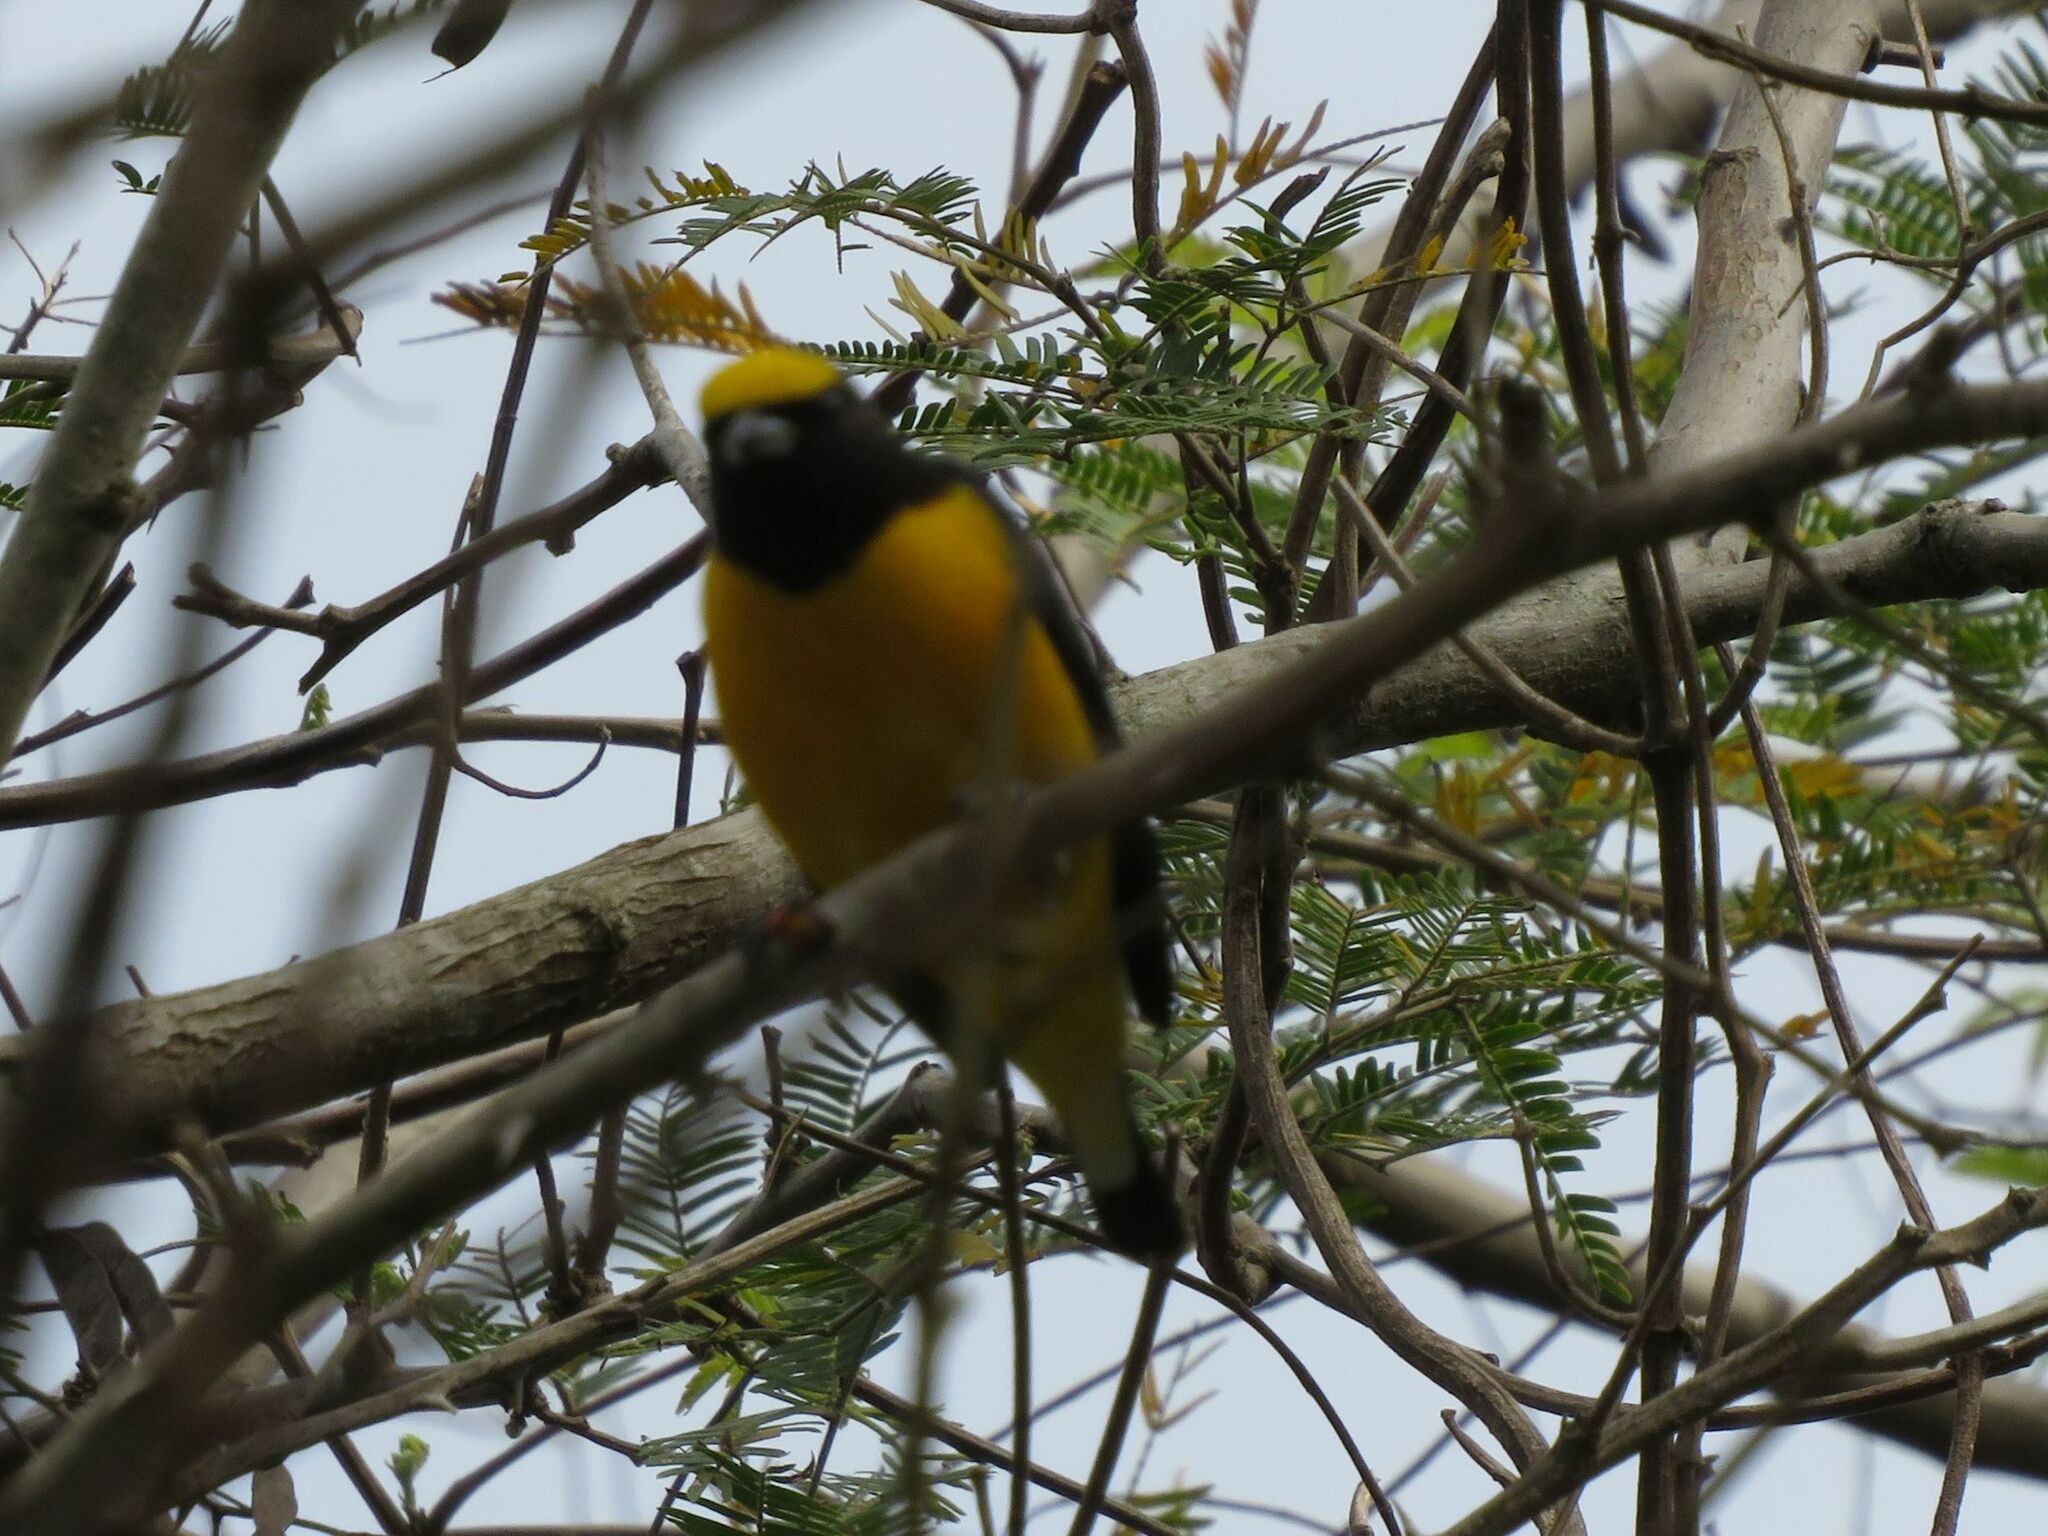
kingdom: Animalia
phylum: Chordata
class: Aves
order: Passeriformes
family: Fringillidae
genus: Euphonia
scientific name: Euphonia chlorotica
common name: Purple-throated euphonia
